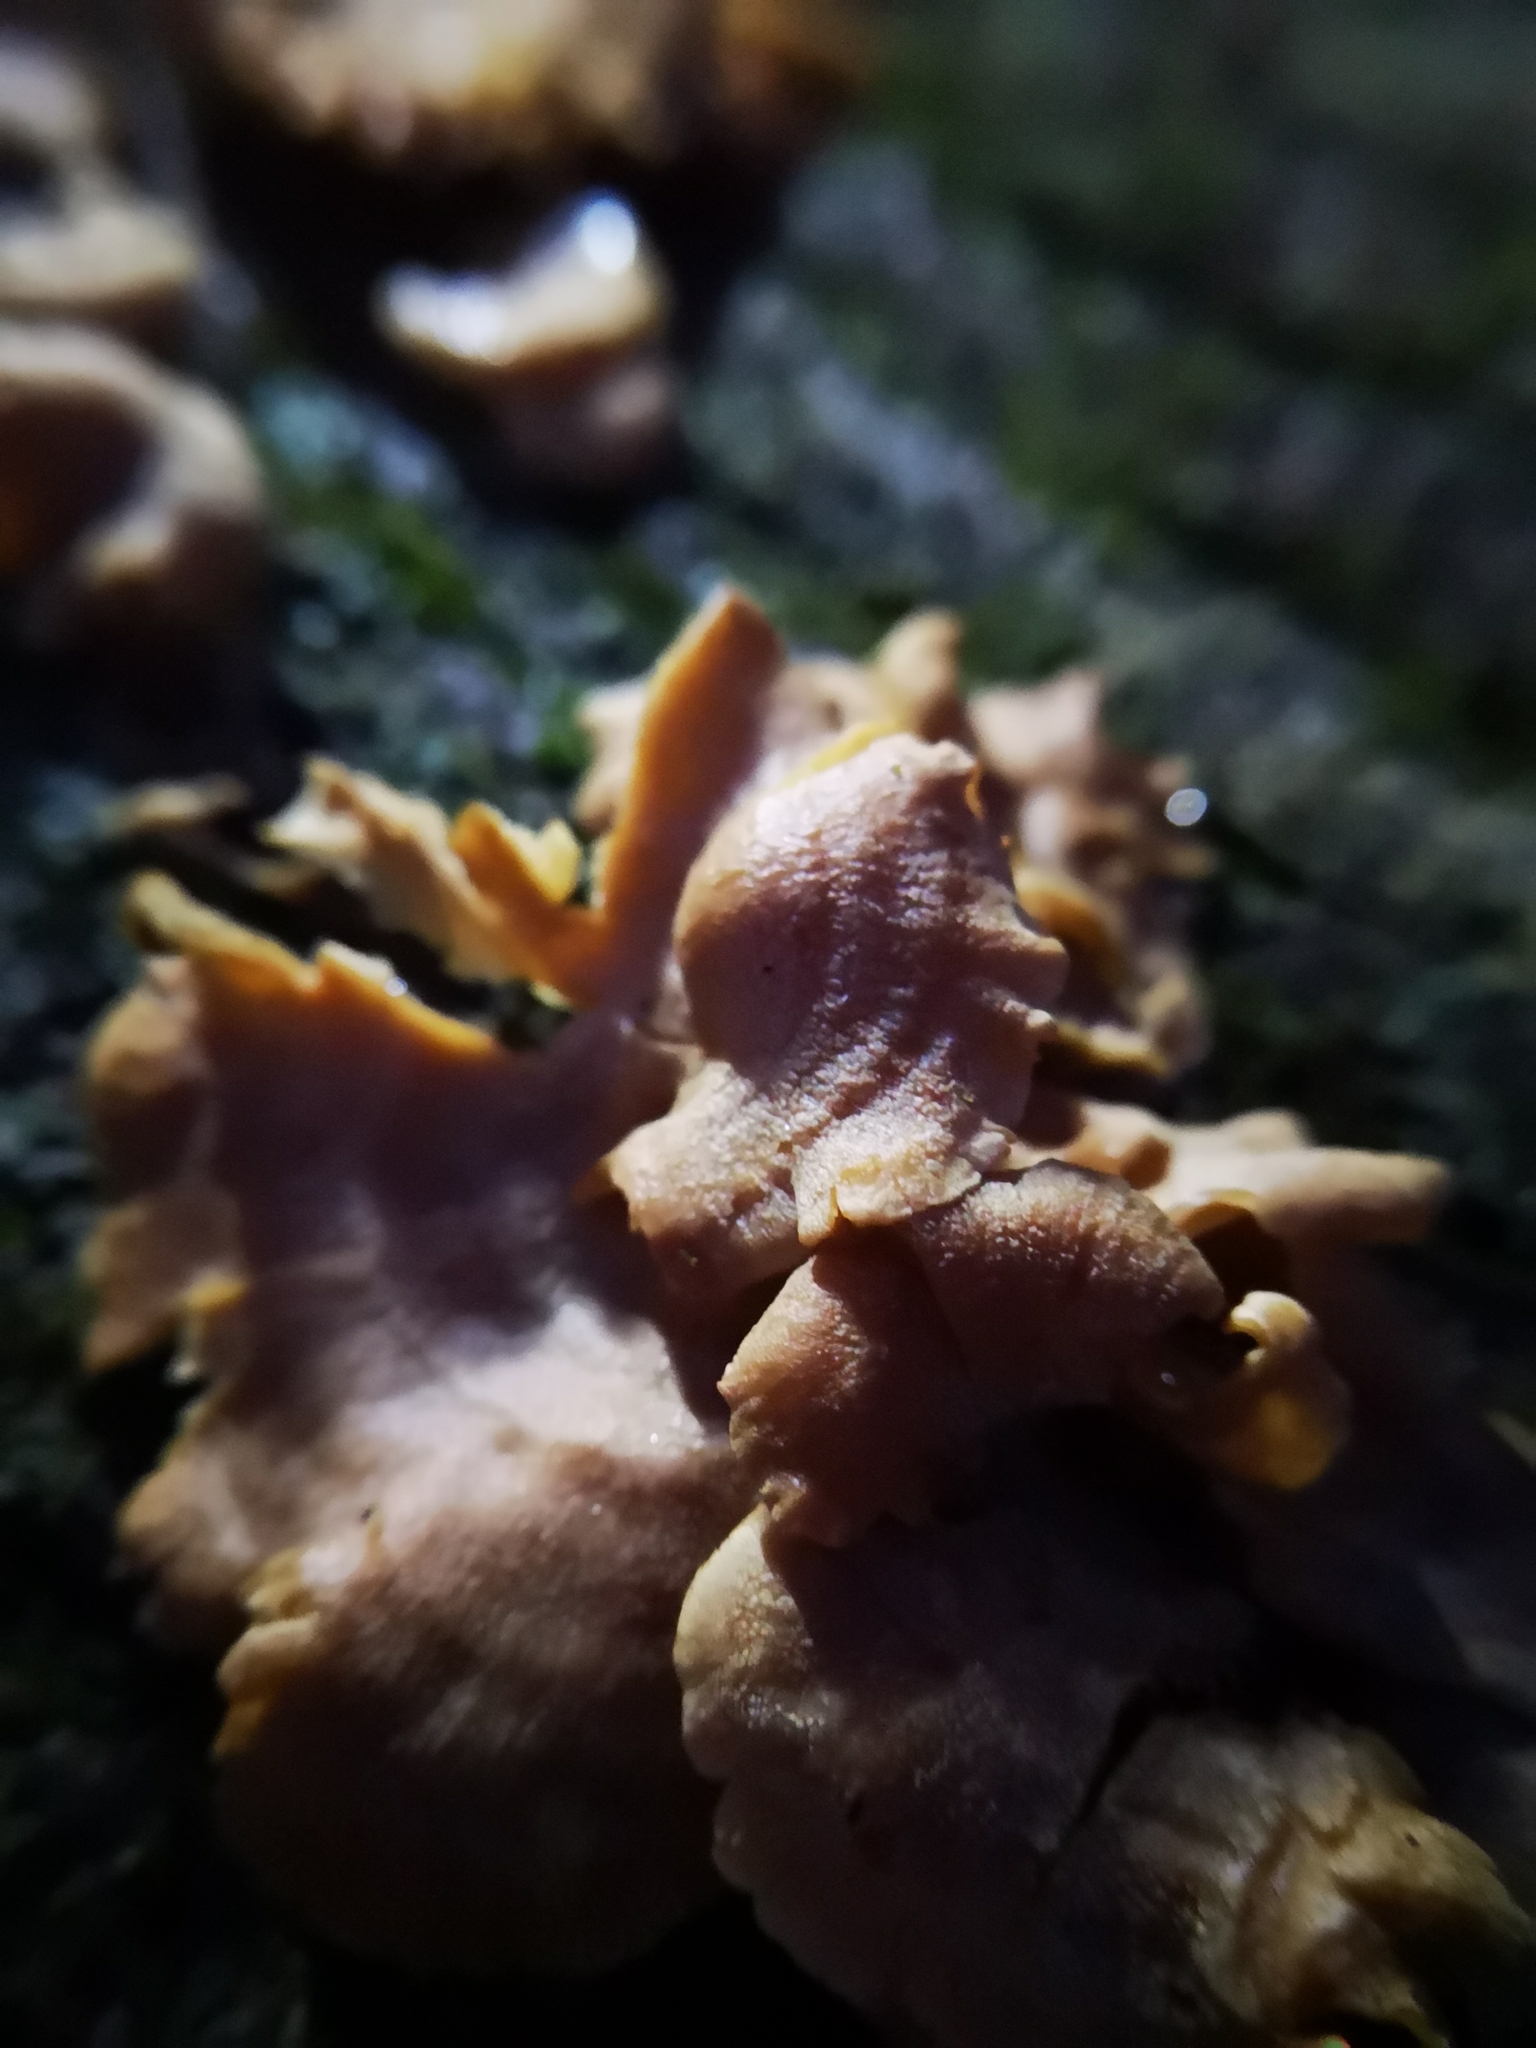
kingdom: Fungi
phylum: Basidiomycota
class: Agaricomycetes
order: Agaricales
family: Mycenaceae
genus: Panellus
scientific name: Panellus stipticus
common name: Bitter oysterling
